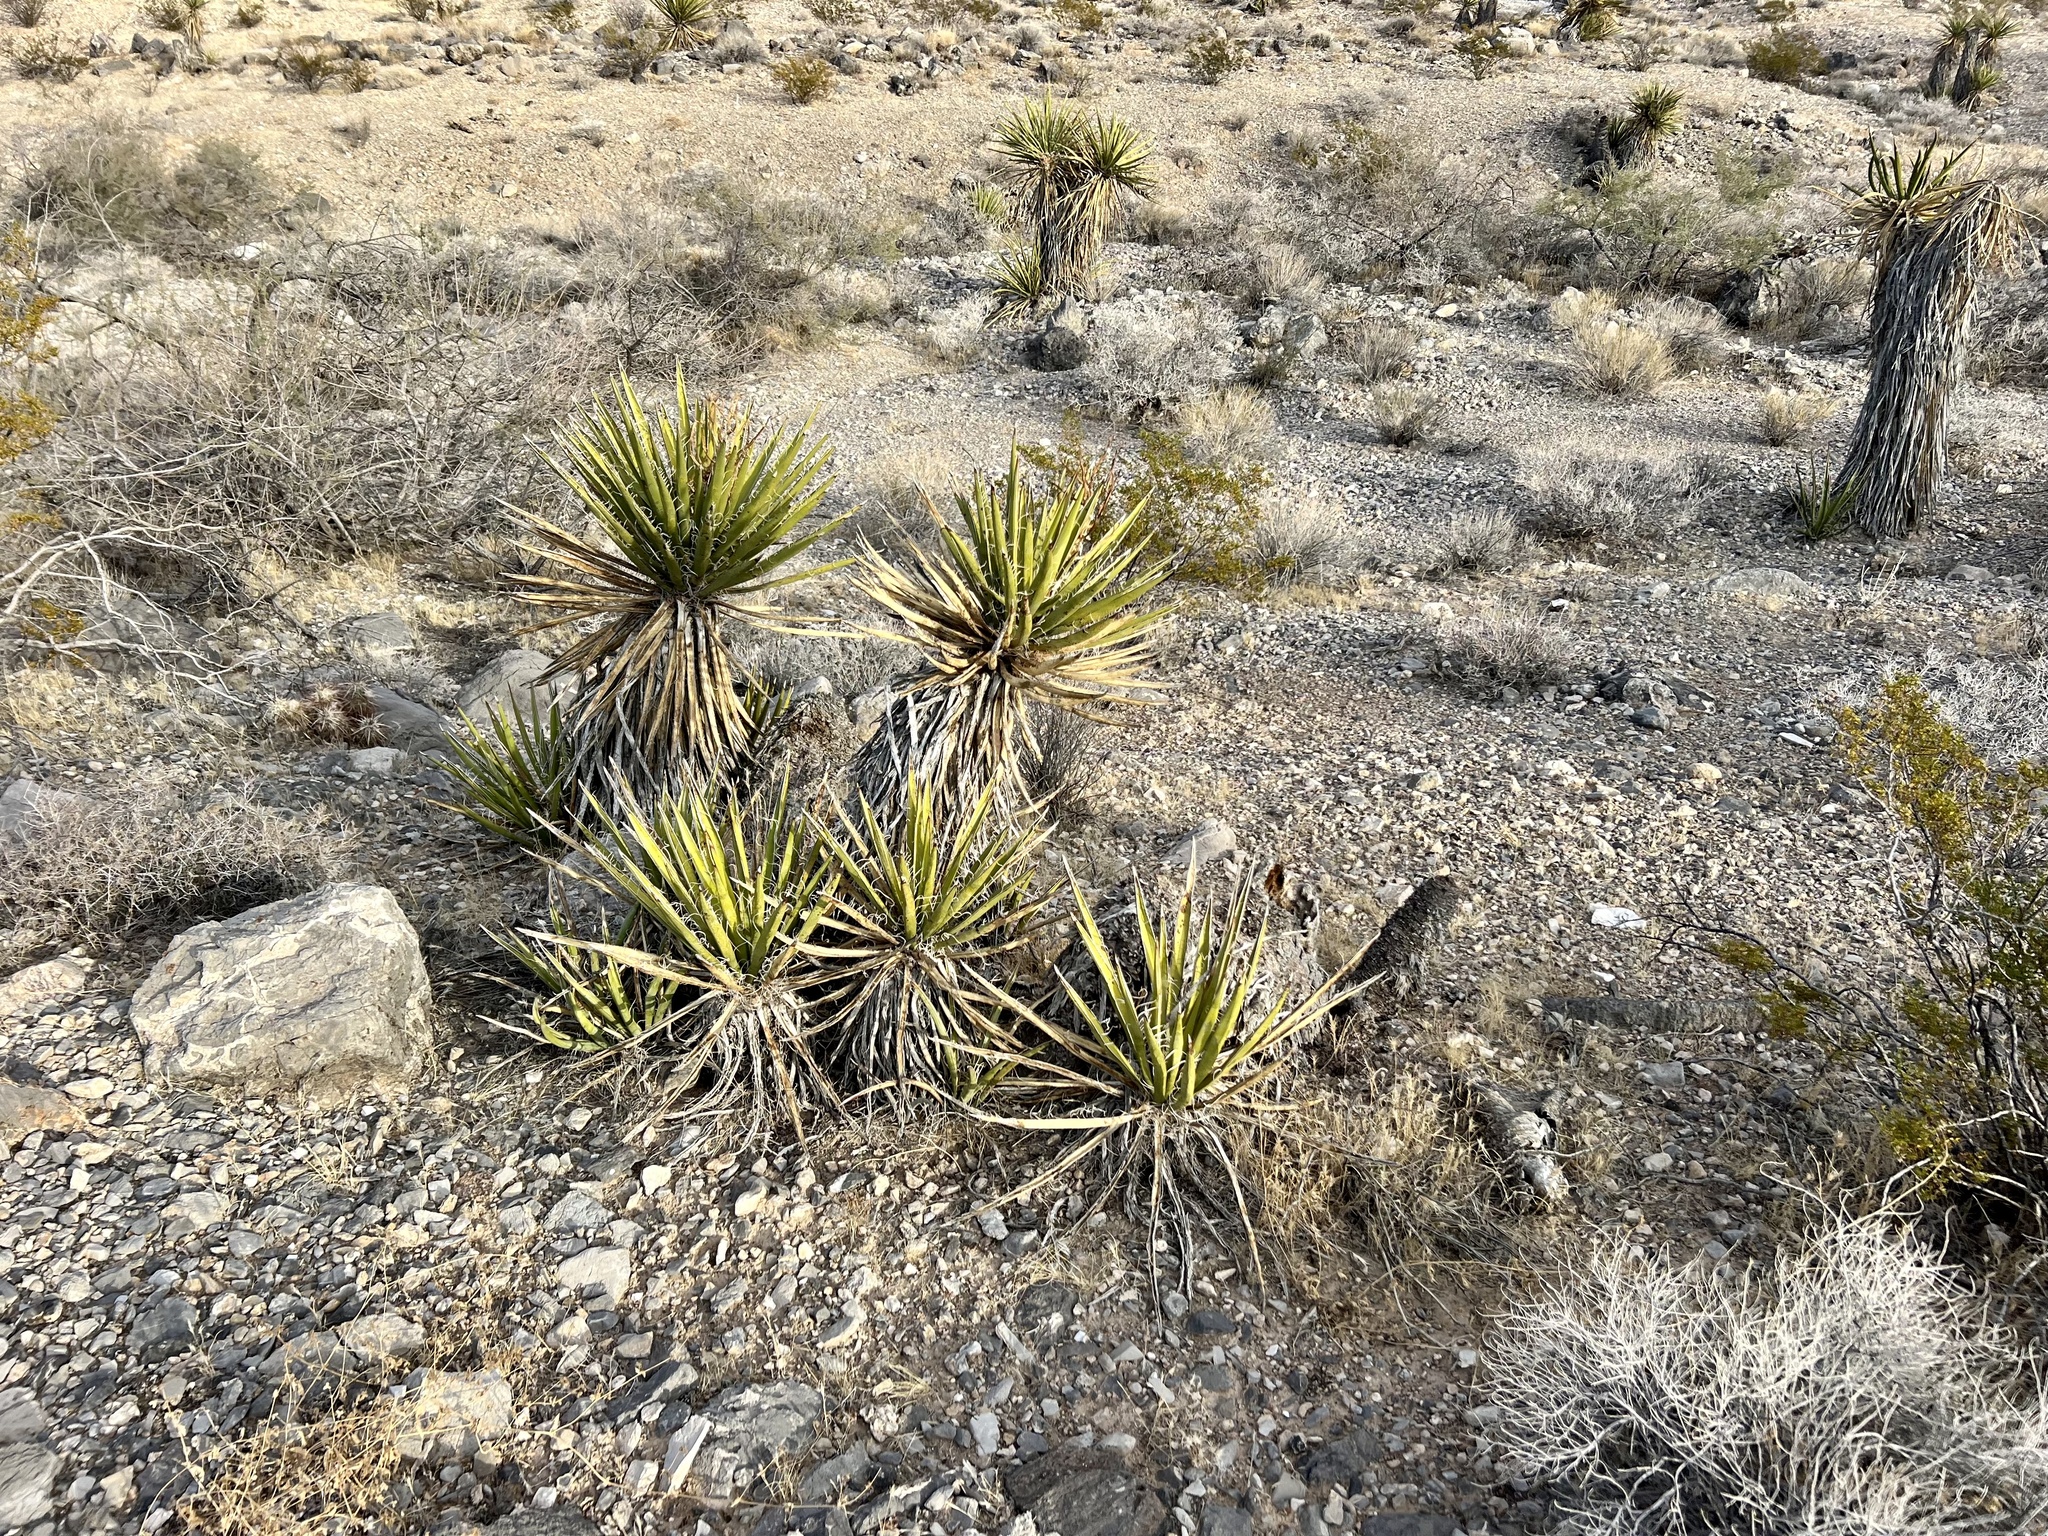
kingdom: Plantae
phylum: Tracheophyta
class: Liliopsida
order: Asparagales
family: Asparagaceae
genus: Yucca
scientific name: Yucca schidigera
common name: Mojave yucca
